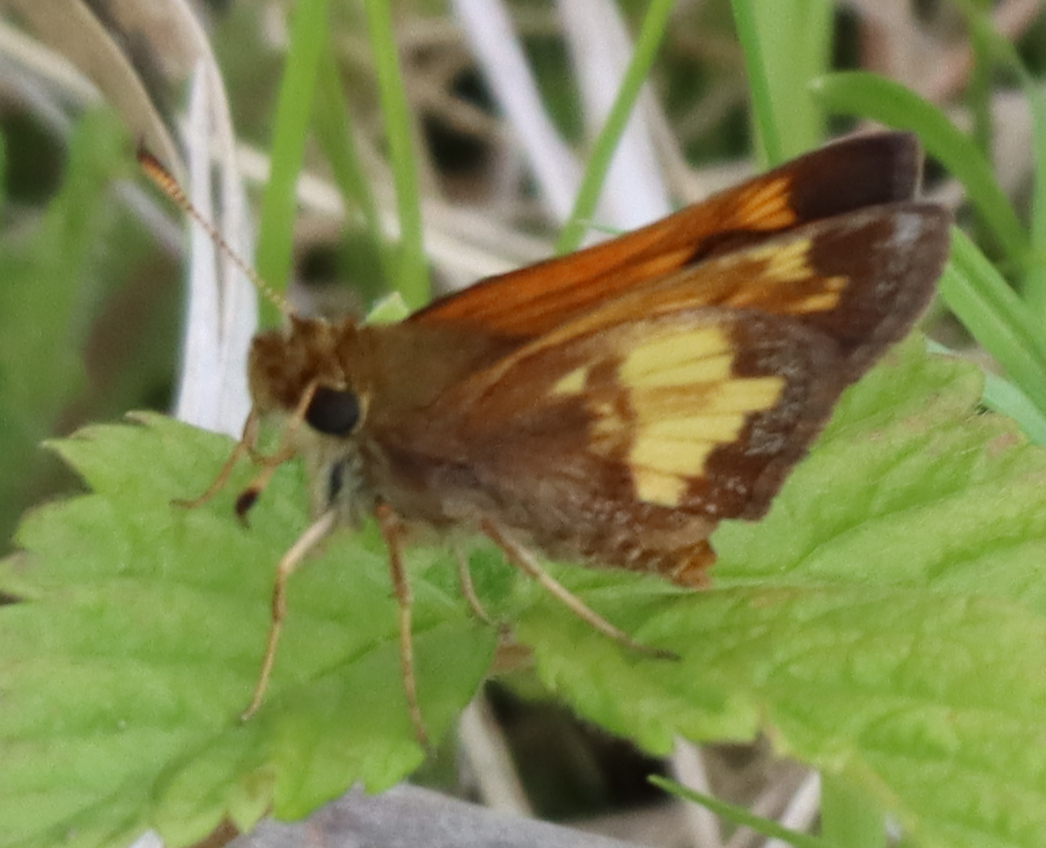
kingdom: Animalia
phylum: Arthropoda
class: Insecta
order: Lepidoptera
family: Hesperiidae
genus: Lon
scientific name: Lon hobomok
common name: Hobomok skipper
